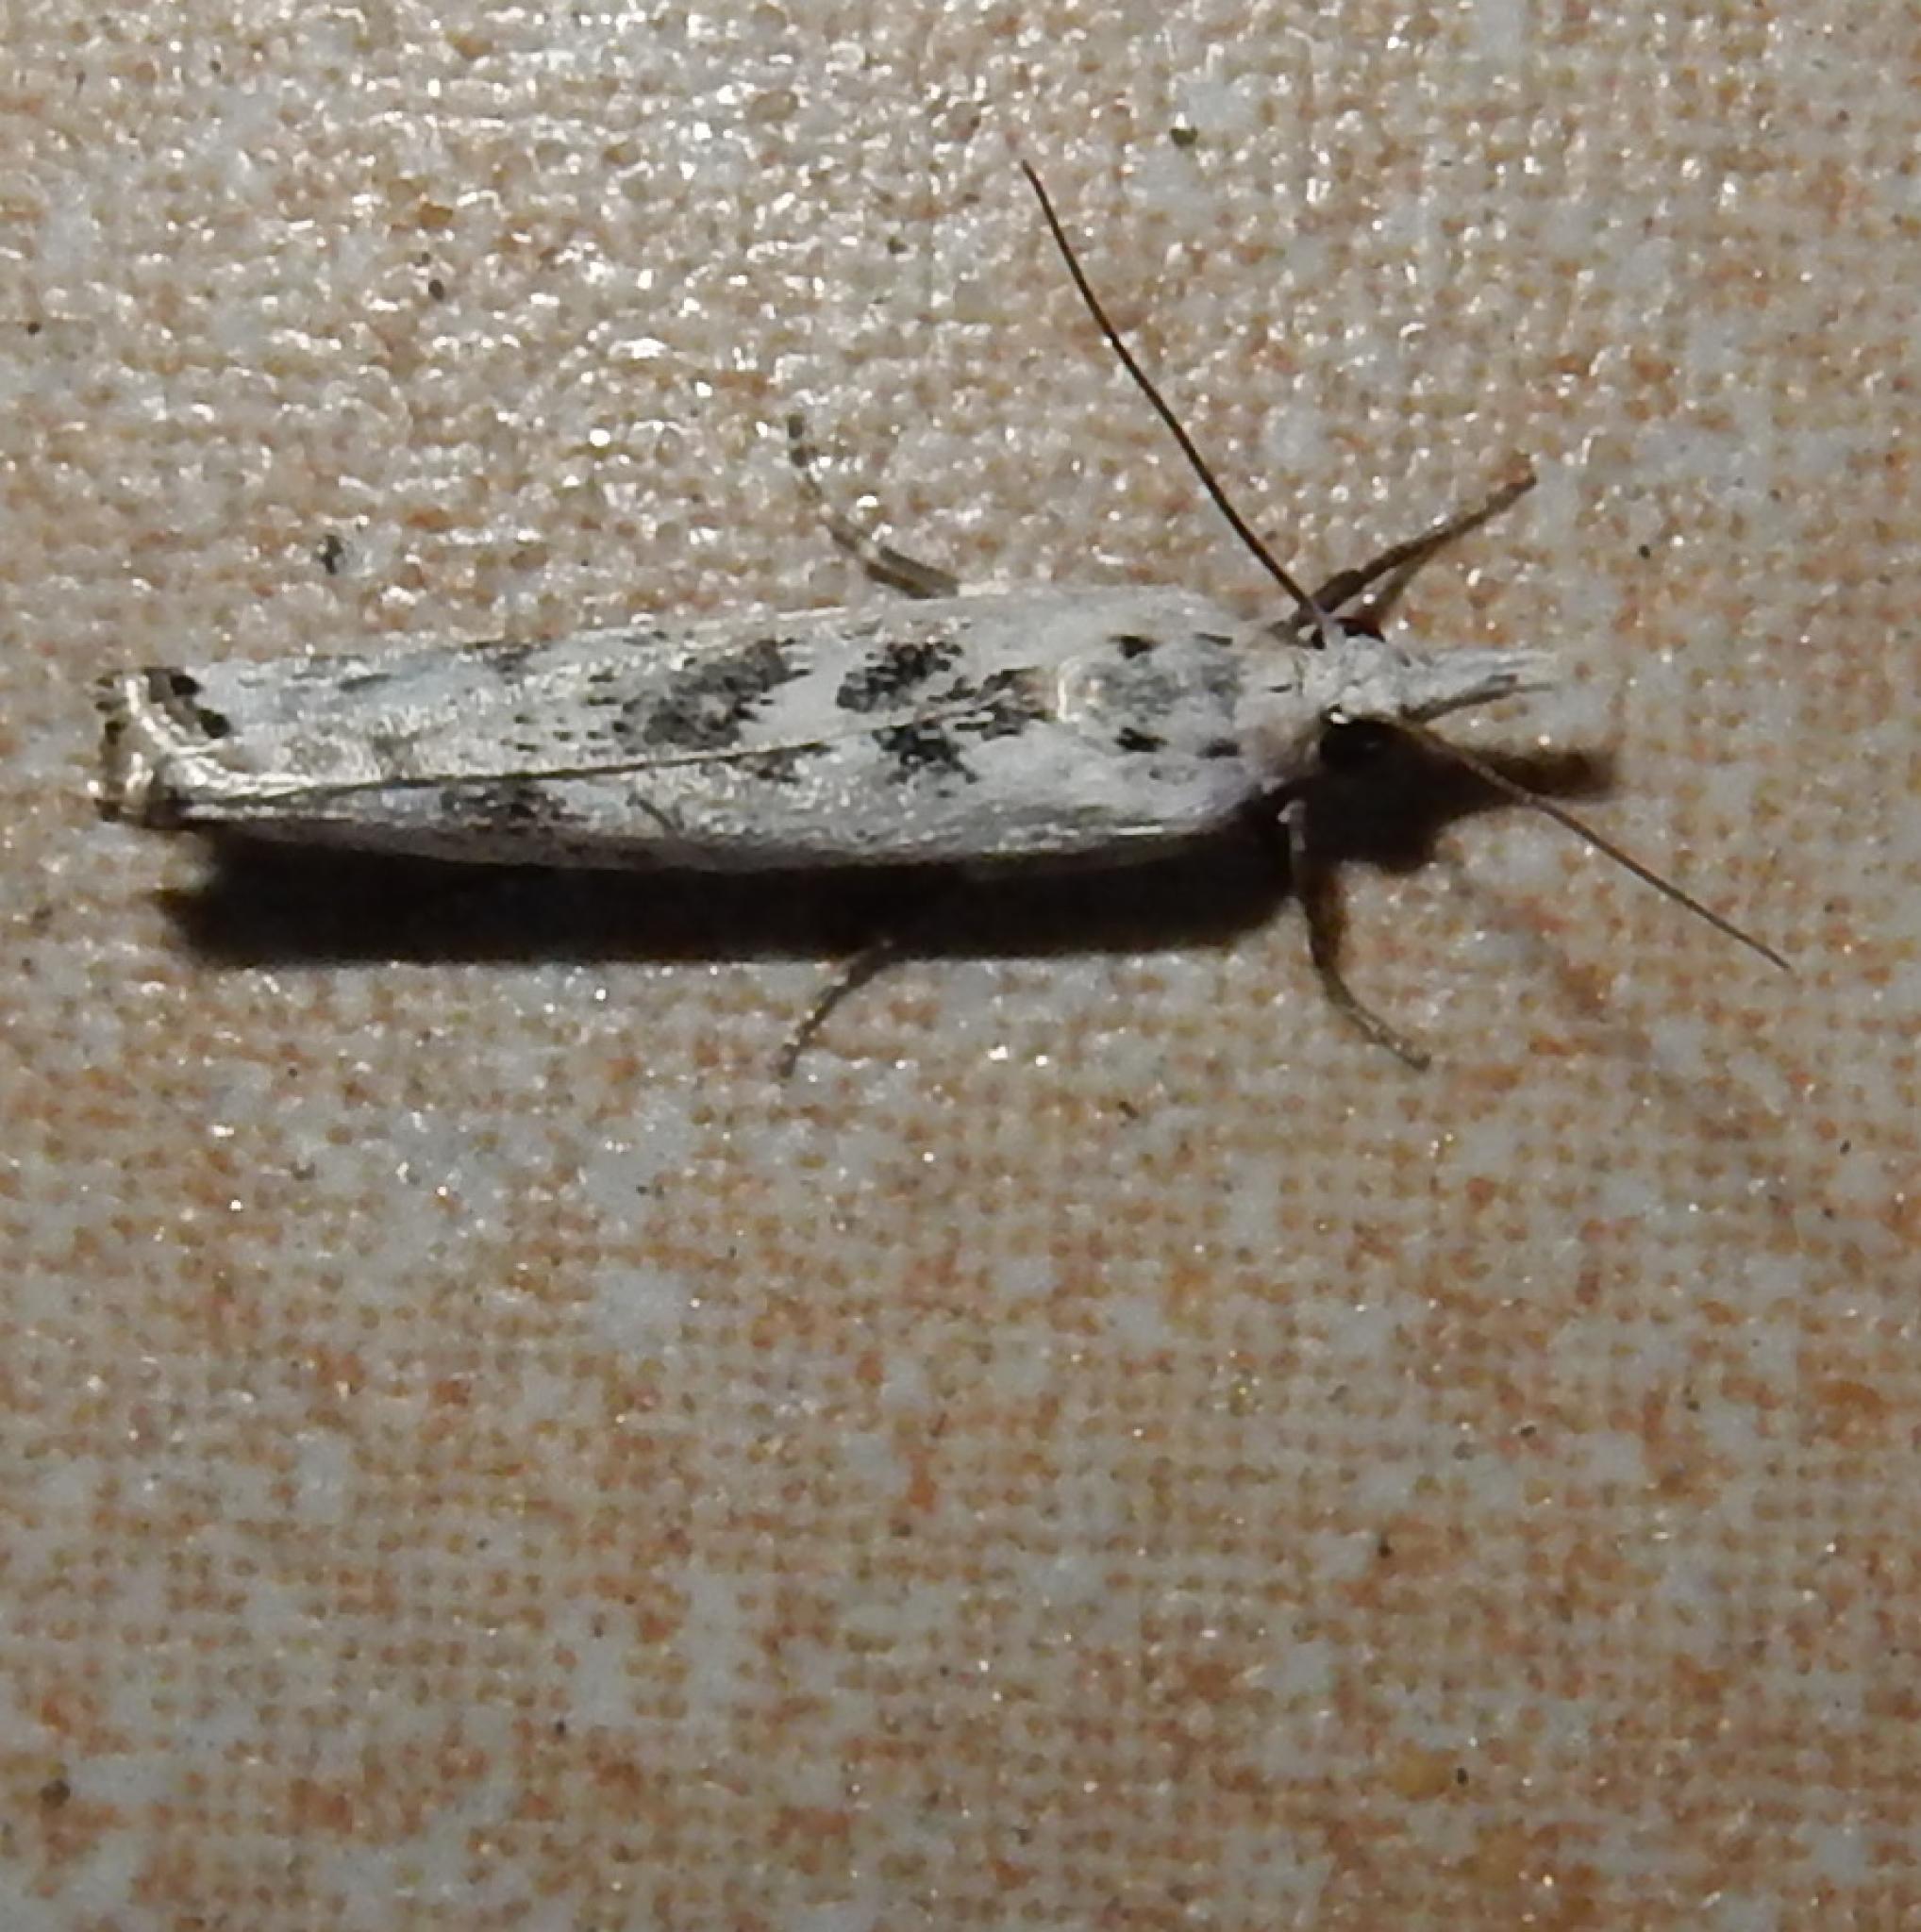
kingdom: Animalia
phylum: Arthropoda
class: Insecta
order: Lepidoptera
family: Crambidae
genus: Crambus
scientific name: Crambus sparsellus
